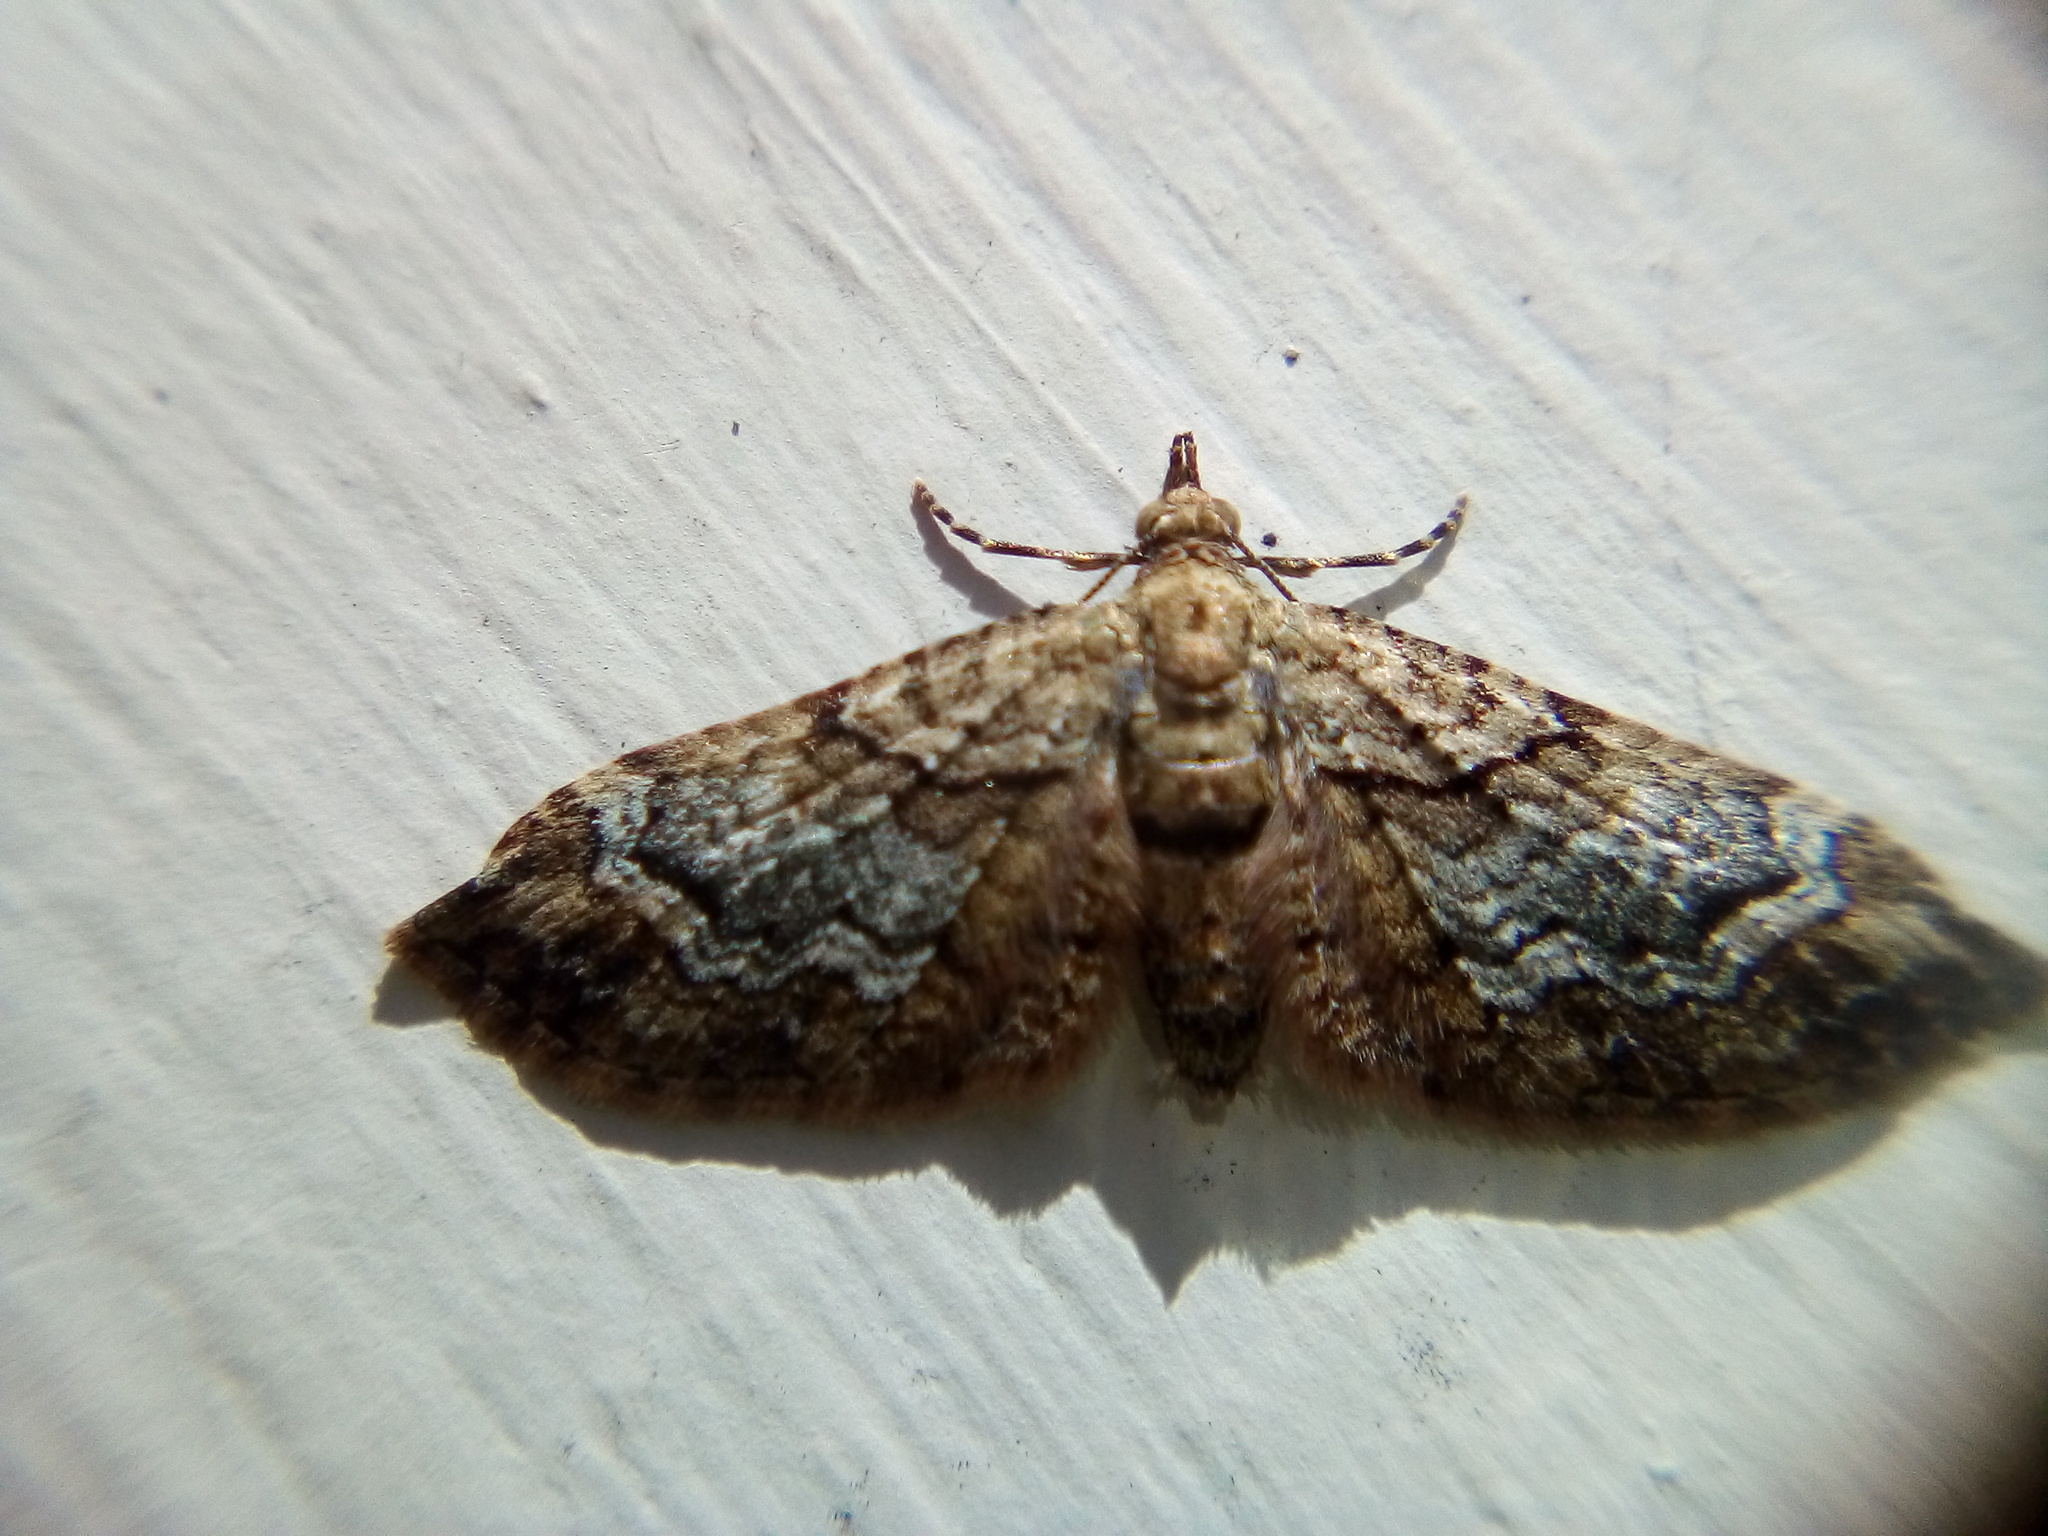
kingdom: Animalia
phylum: Arthropoda
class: Insecta
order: Lepidoptera
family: Geometridae
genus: Idaea
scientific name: Idaea mutanda
